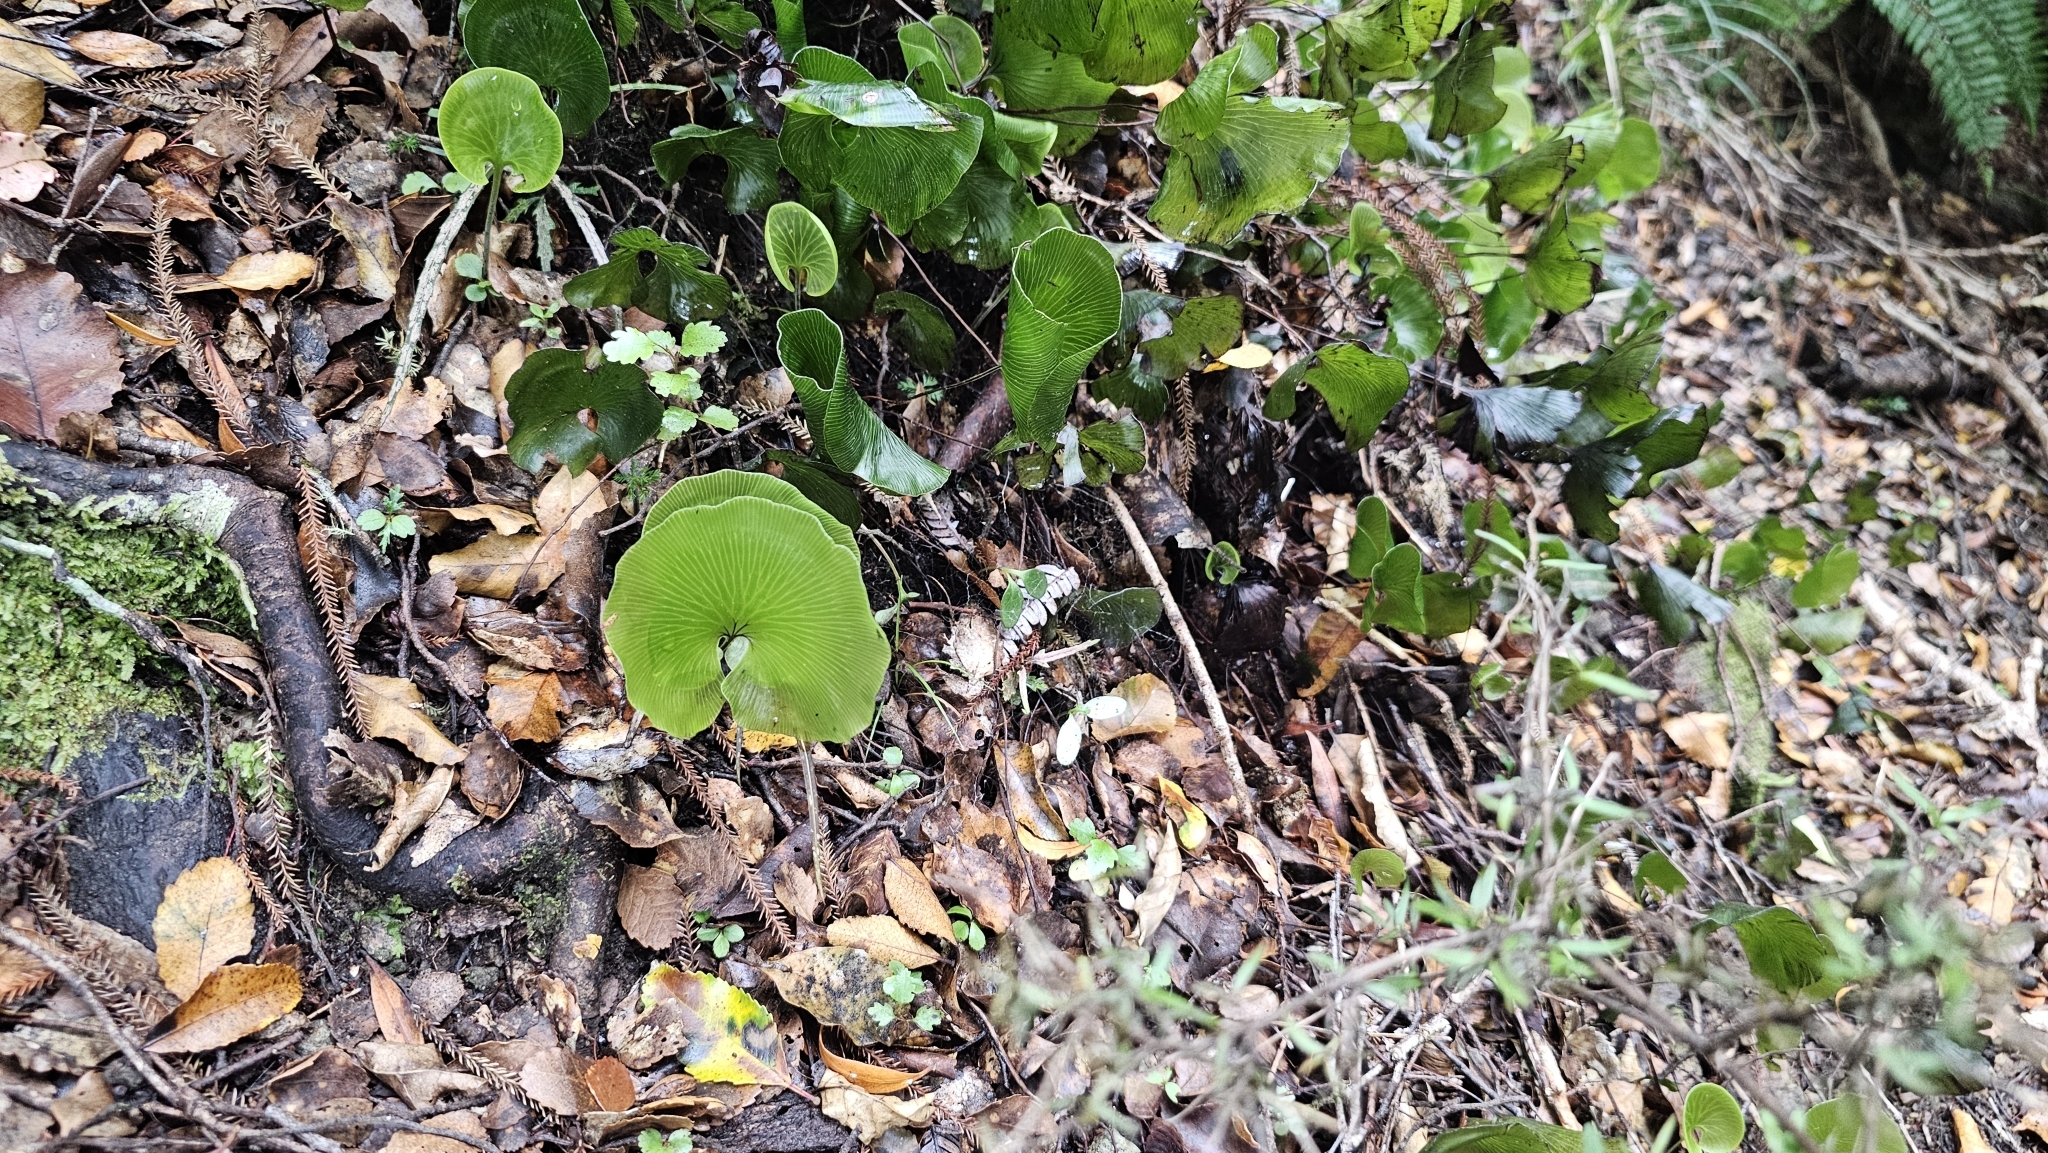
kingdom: Plantae
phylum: Tracheophyta
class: Polypodiopsida
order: Hymenophyllales
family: Hymenophyllaceae
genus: Hymenophyllum
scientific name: Hymenophyllum nephrophyllum
